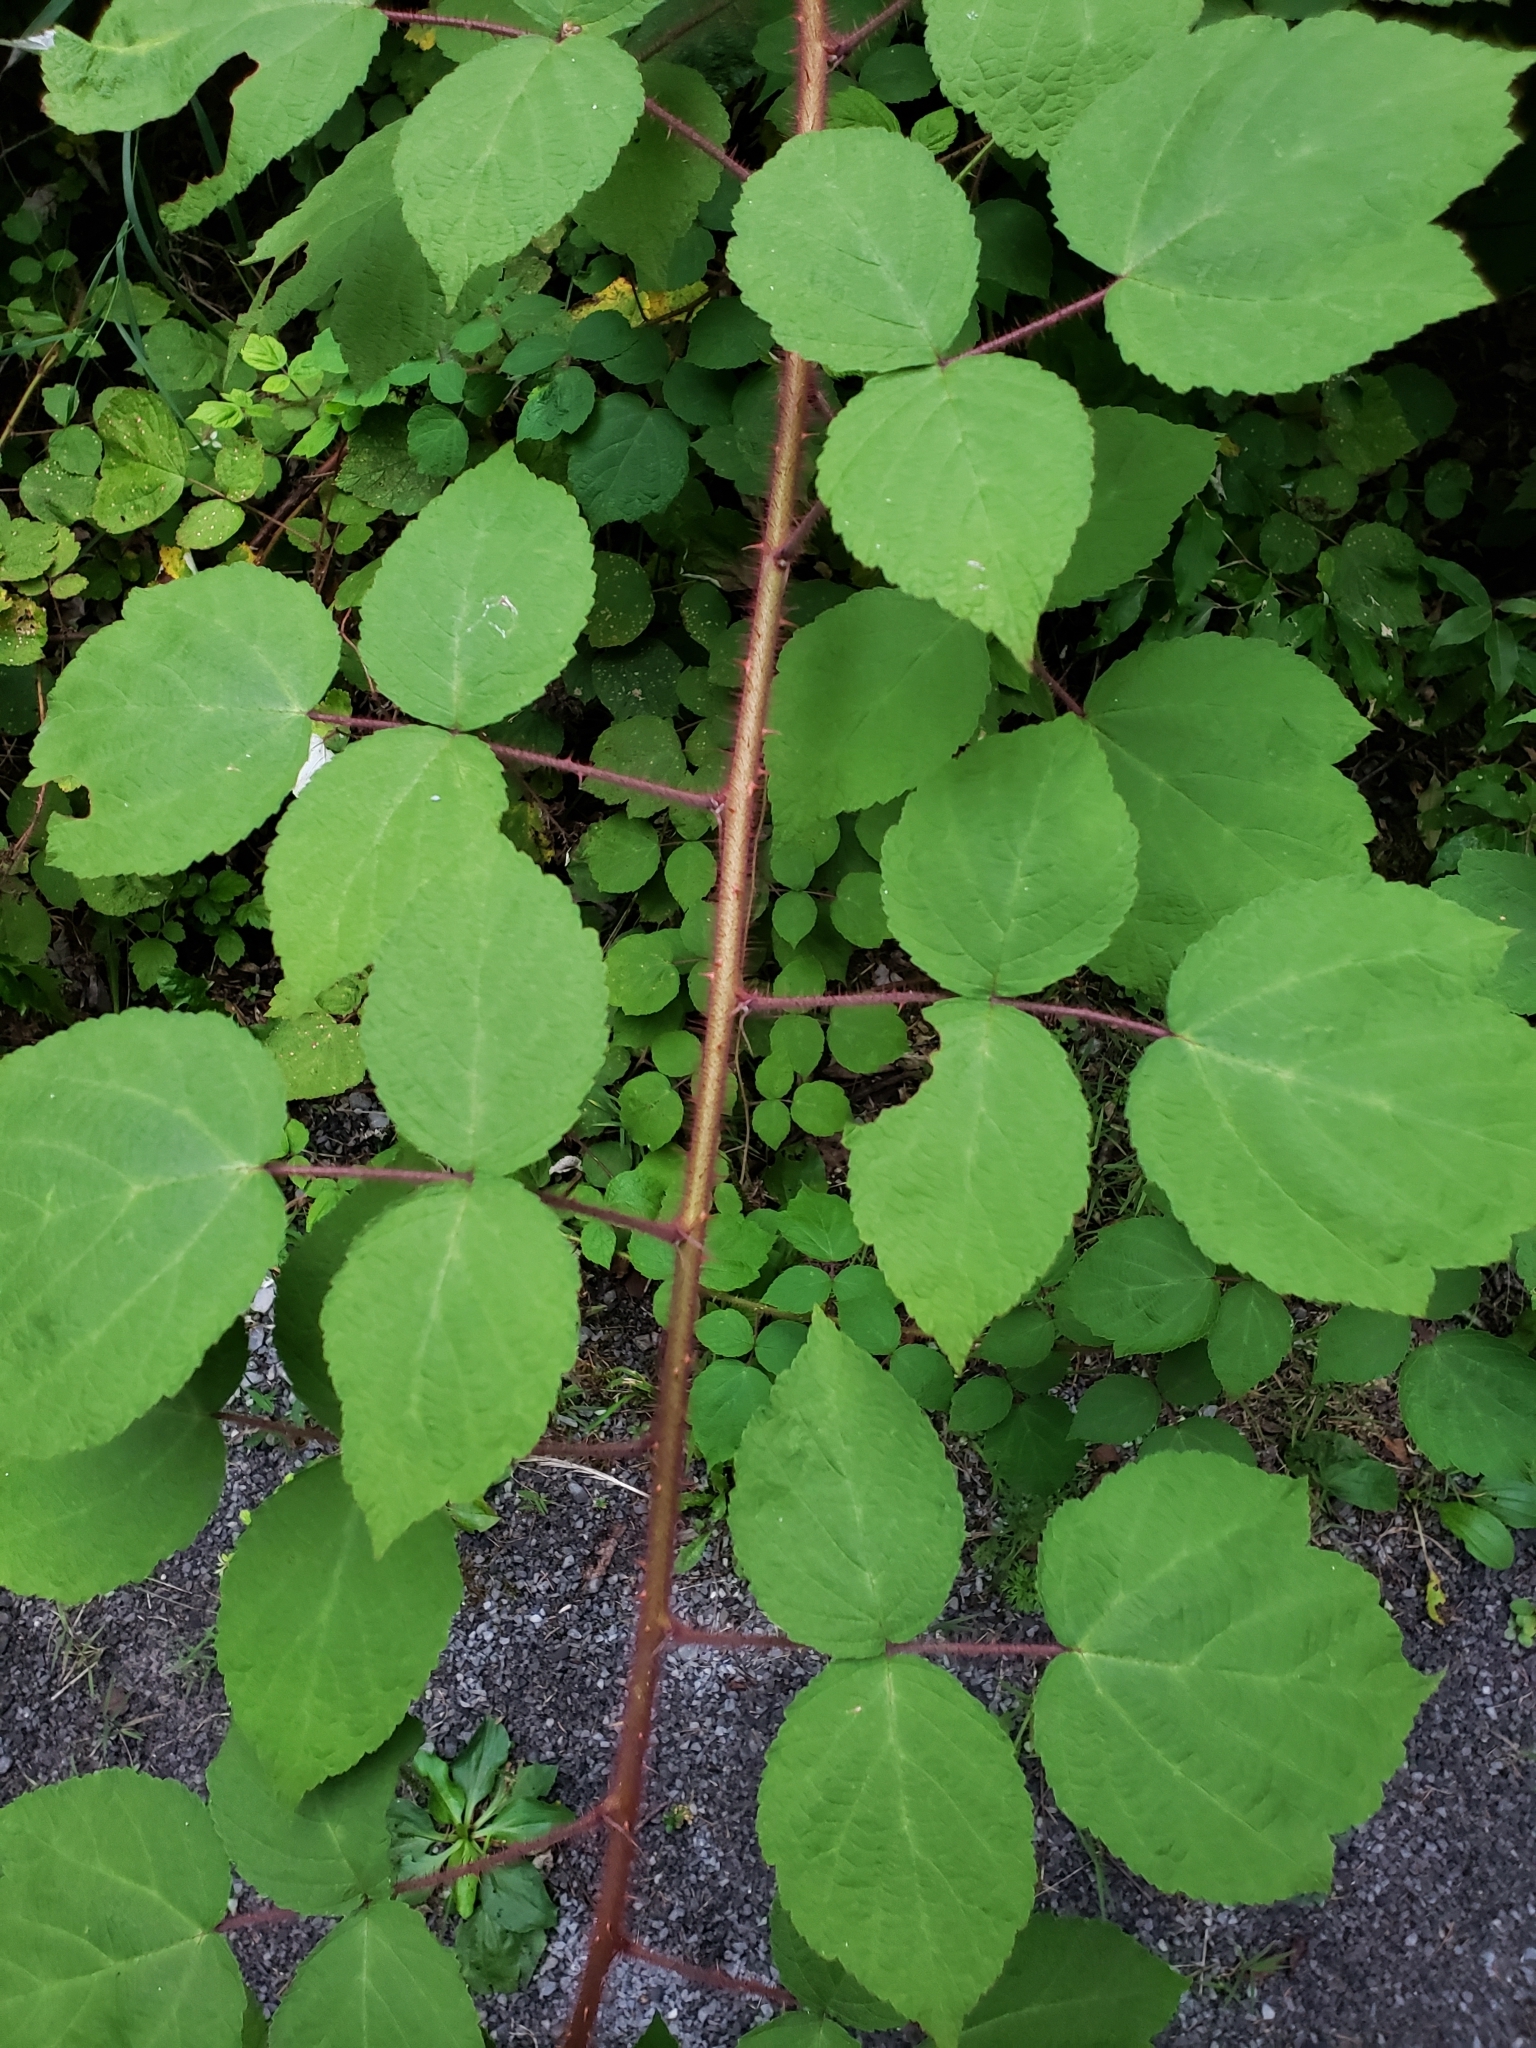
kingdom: Plantae
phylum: Tracheophyta
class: Magnoliopsida
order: Rosales
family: Rosaceae
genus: Rubus
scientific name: Rubus phoenicolasius
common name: Japanese wineberry
